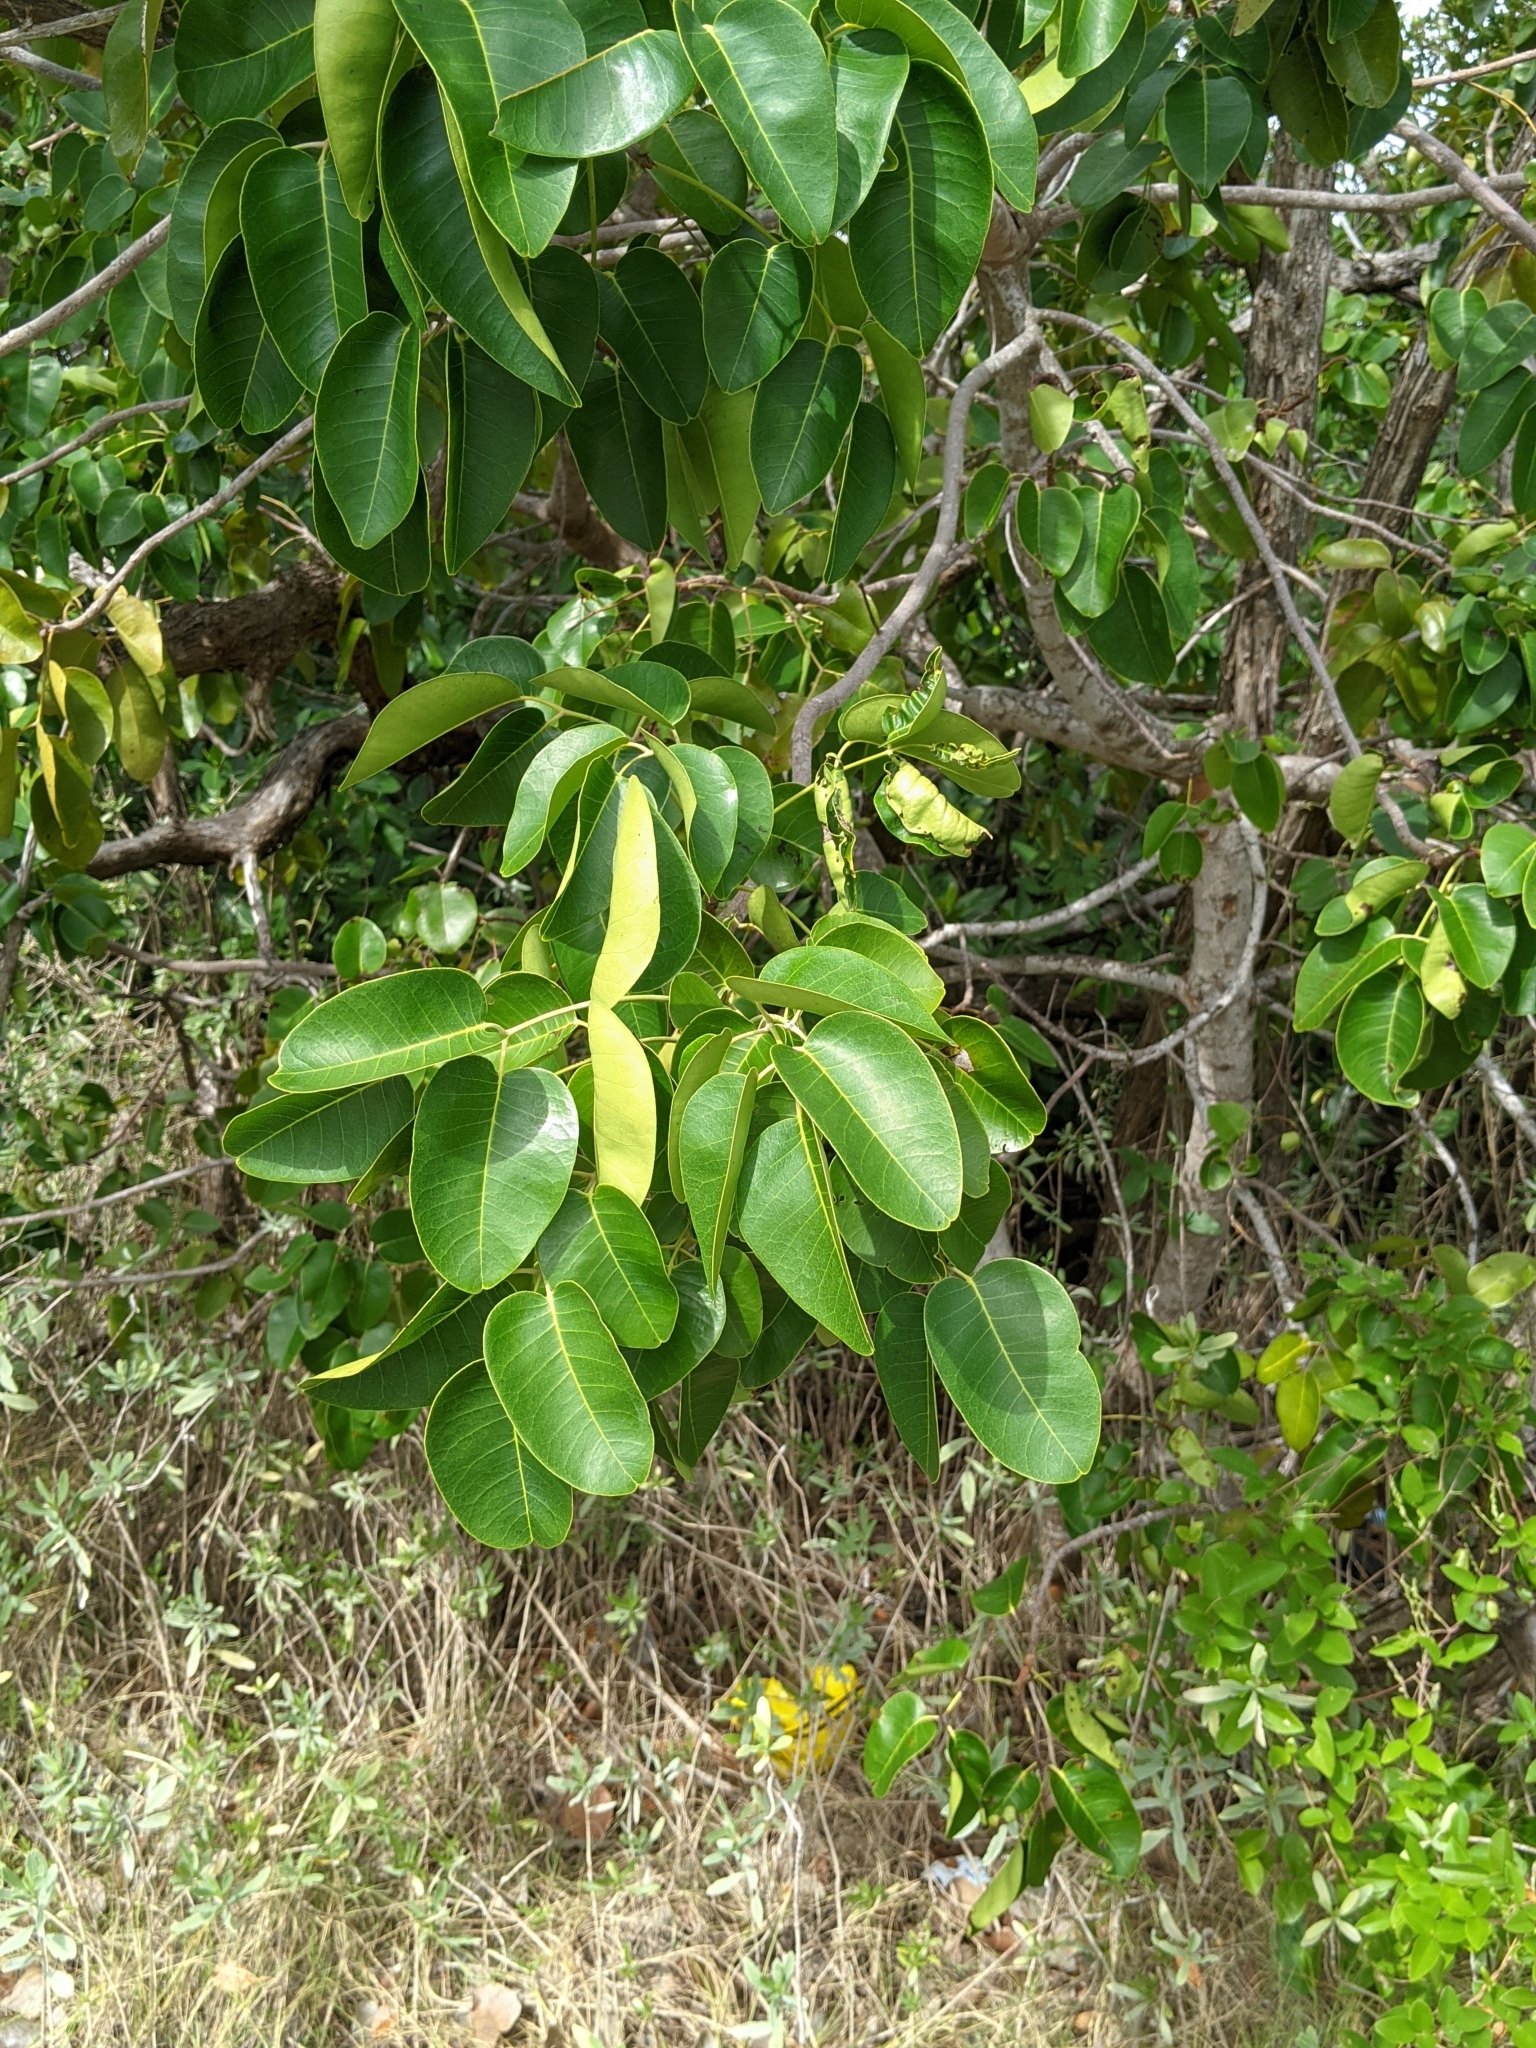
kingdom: Plantae
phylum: Tracheophyta
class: Magnoliopsida
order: Sapindales
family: Anacardiaceae
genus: Metopium
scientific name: Metopium toxiferum
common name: Florida poisontree
